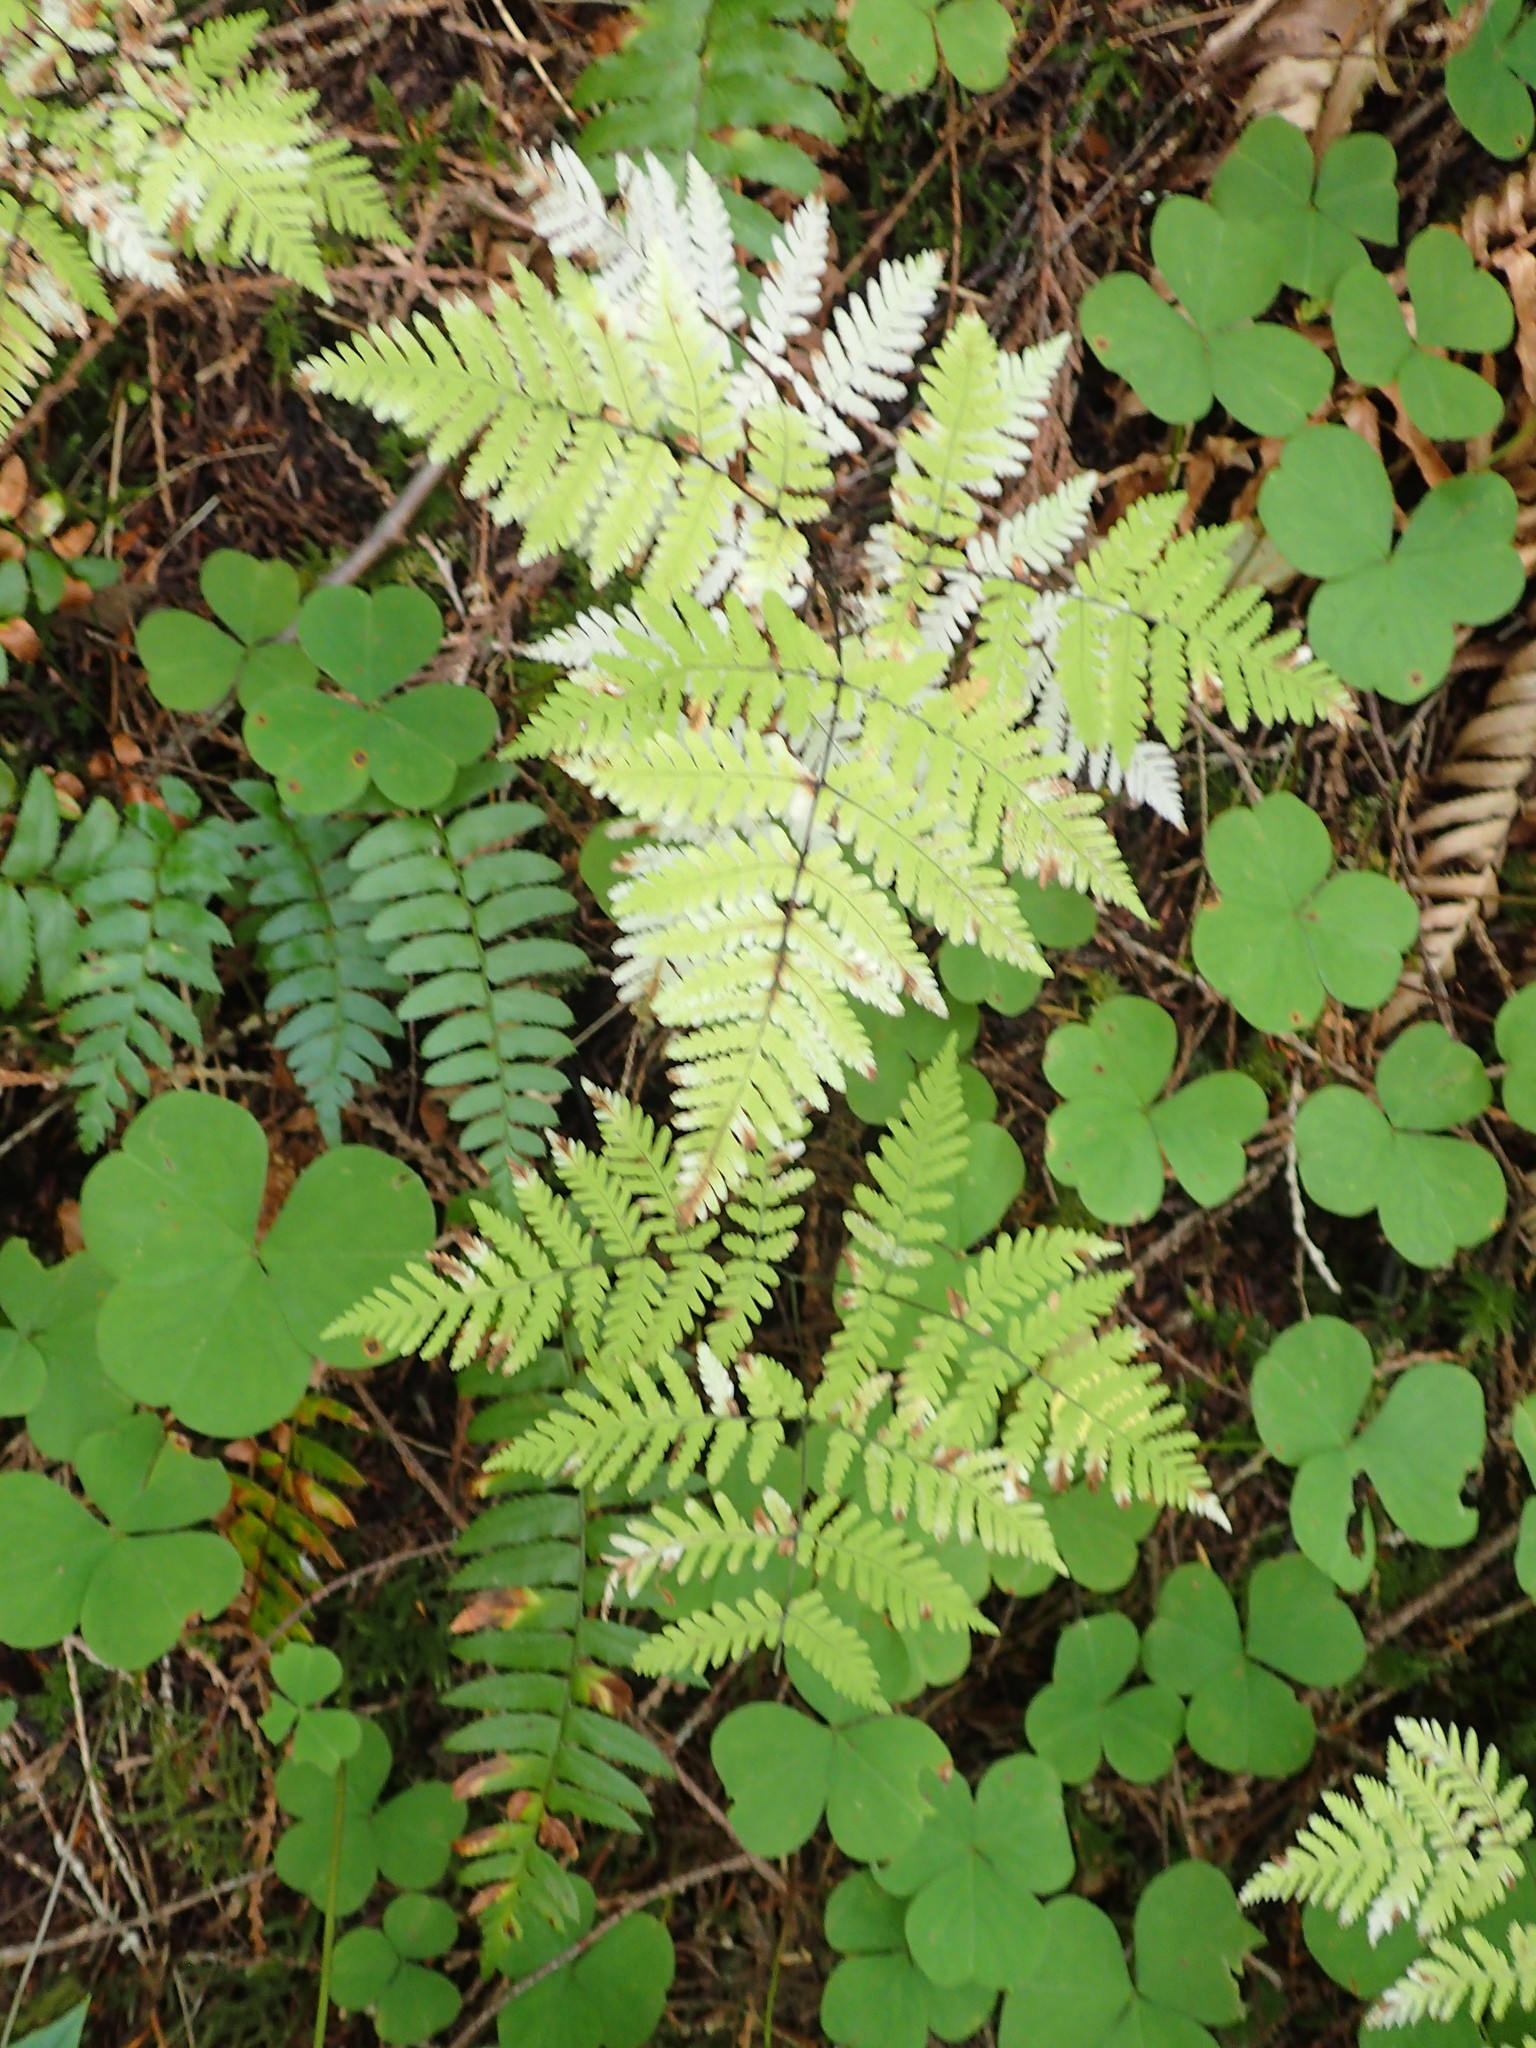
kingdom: Plantae
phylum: Tracheophyta
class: Polypodiopsida
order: Polypodiales
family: Cystopteridaceae
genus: Gymnocarpium
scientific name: Gymnocarpium disjunctum
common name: Western oak fern
